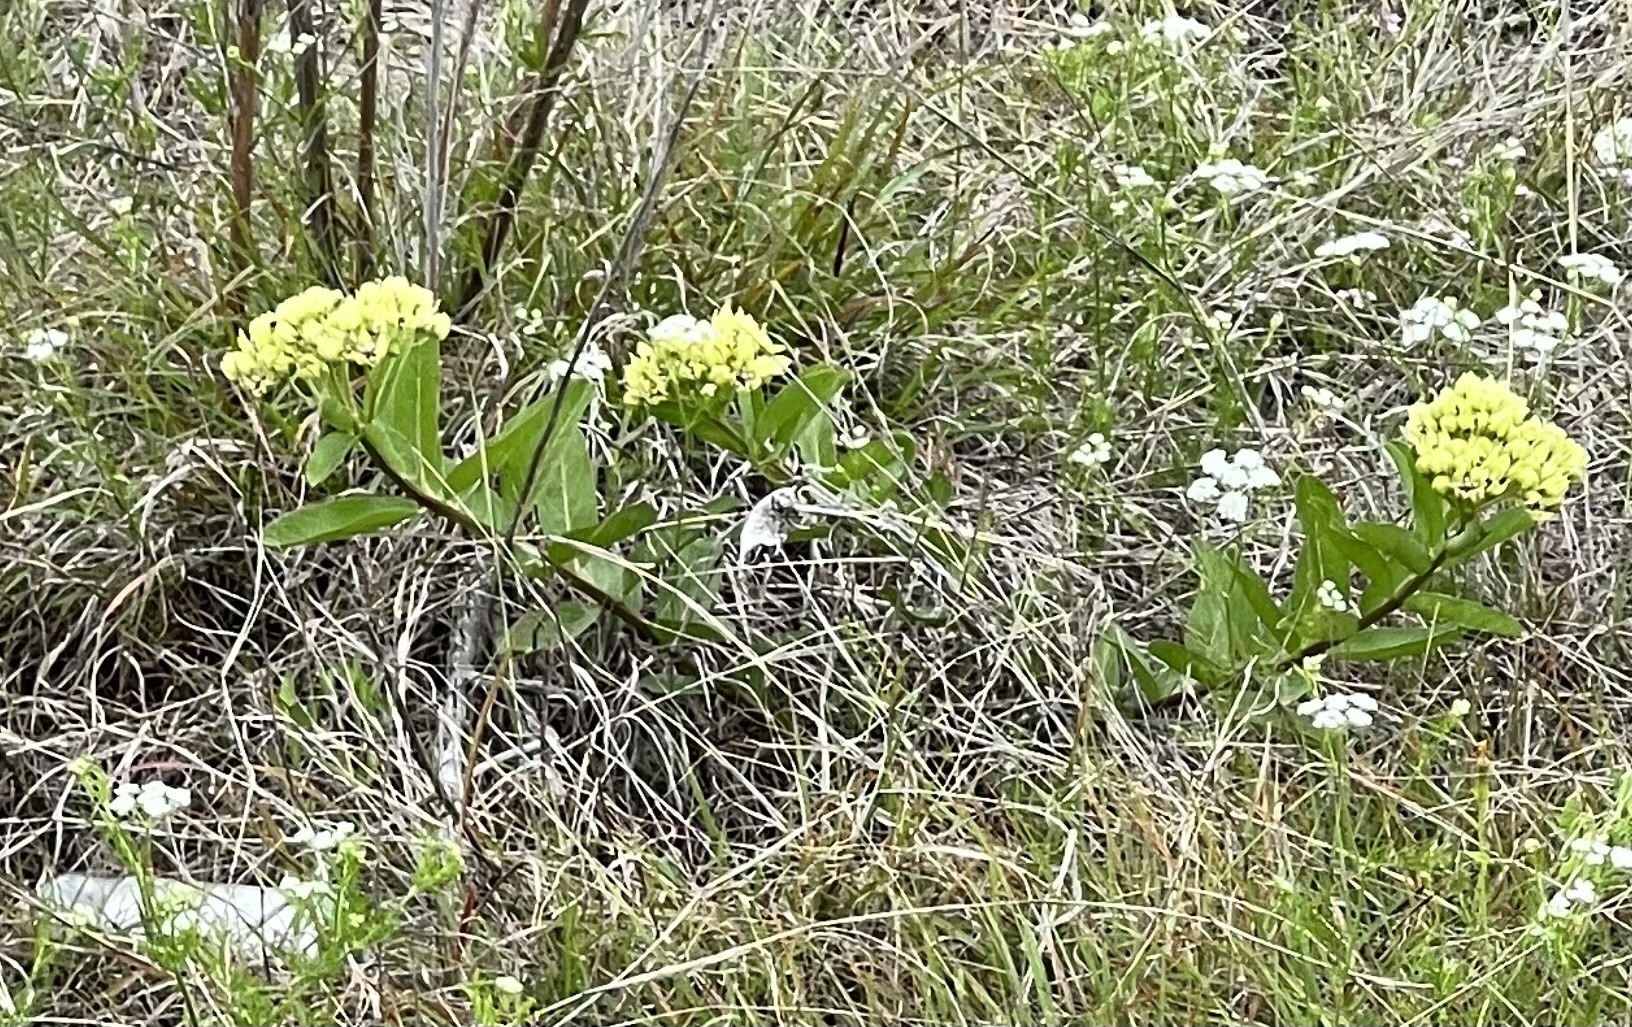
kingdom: Plantae
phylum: Tracheophyta
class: Magnoliopsida
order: Gentianales
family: Apocynaceae
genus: Asclepias
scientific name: Asclepias viridis
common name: Antelope-horns
